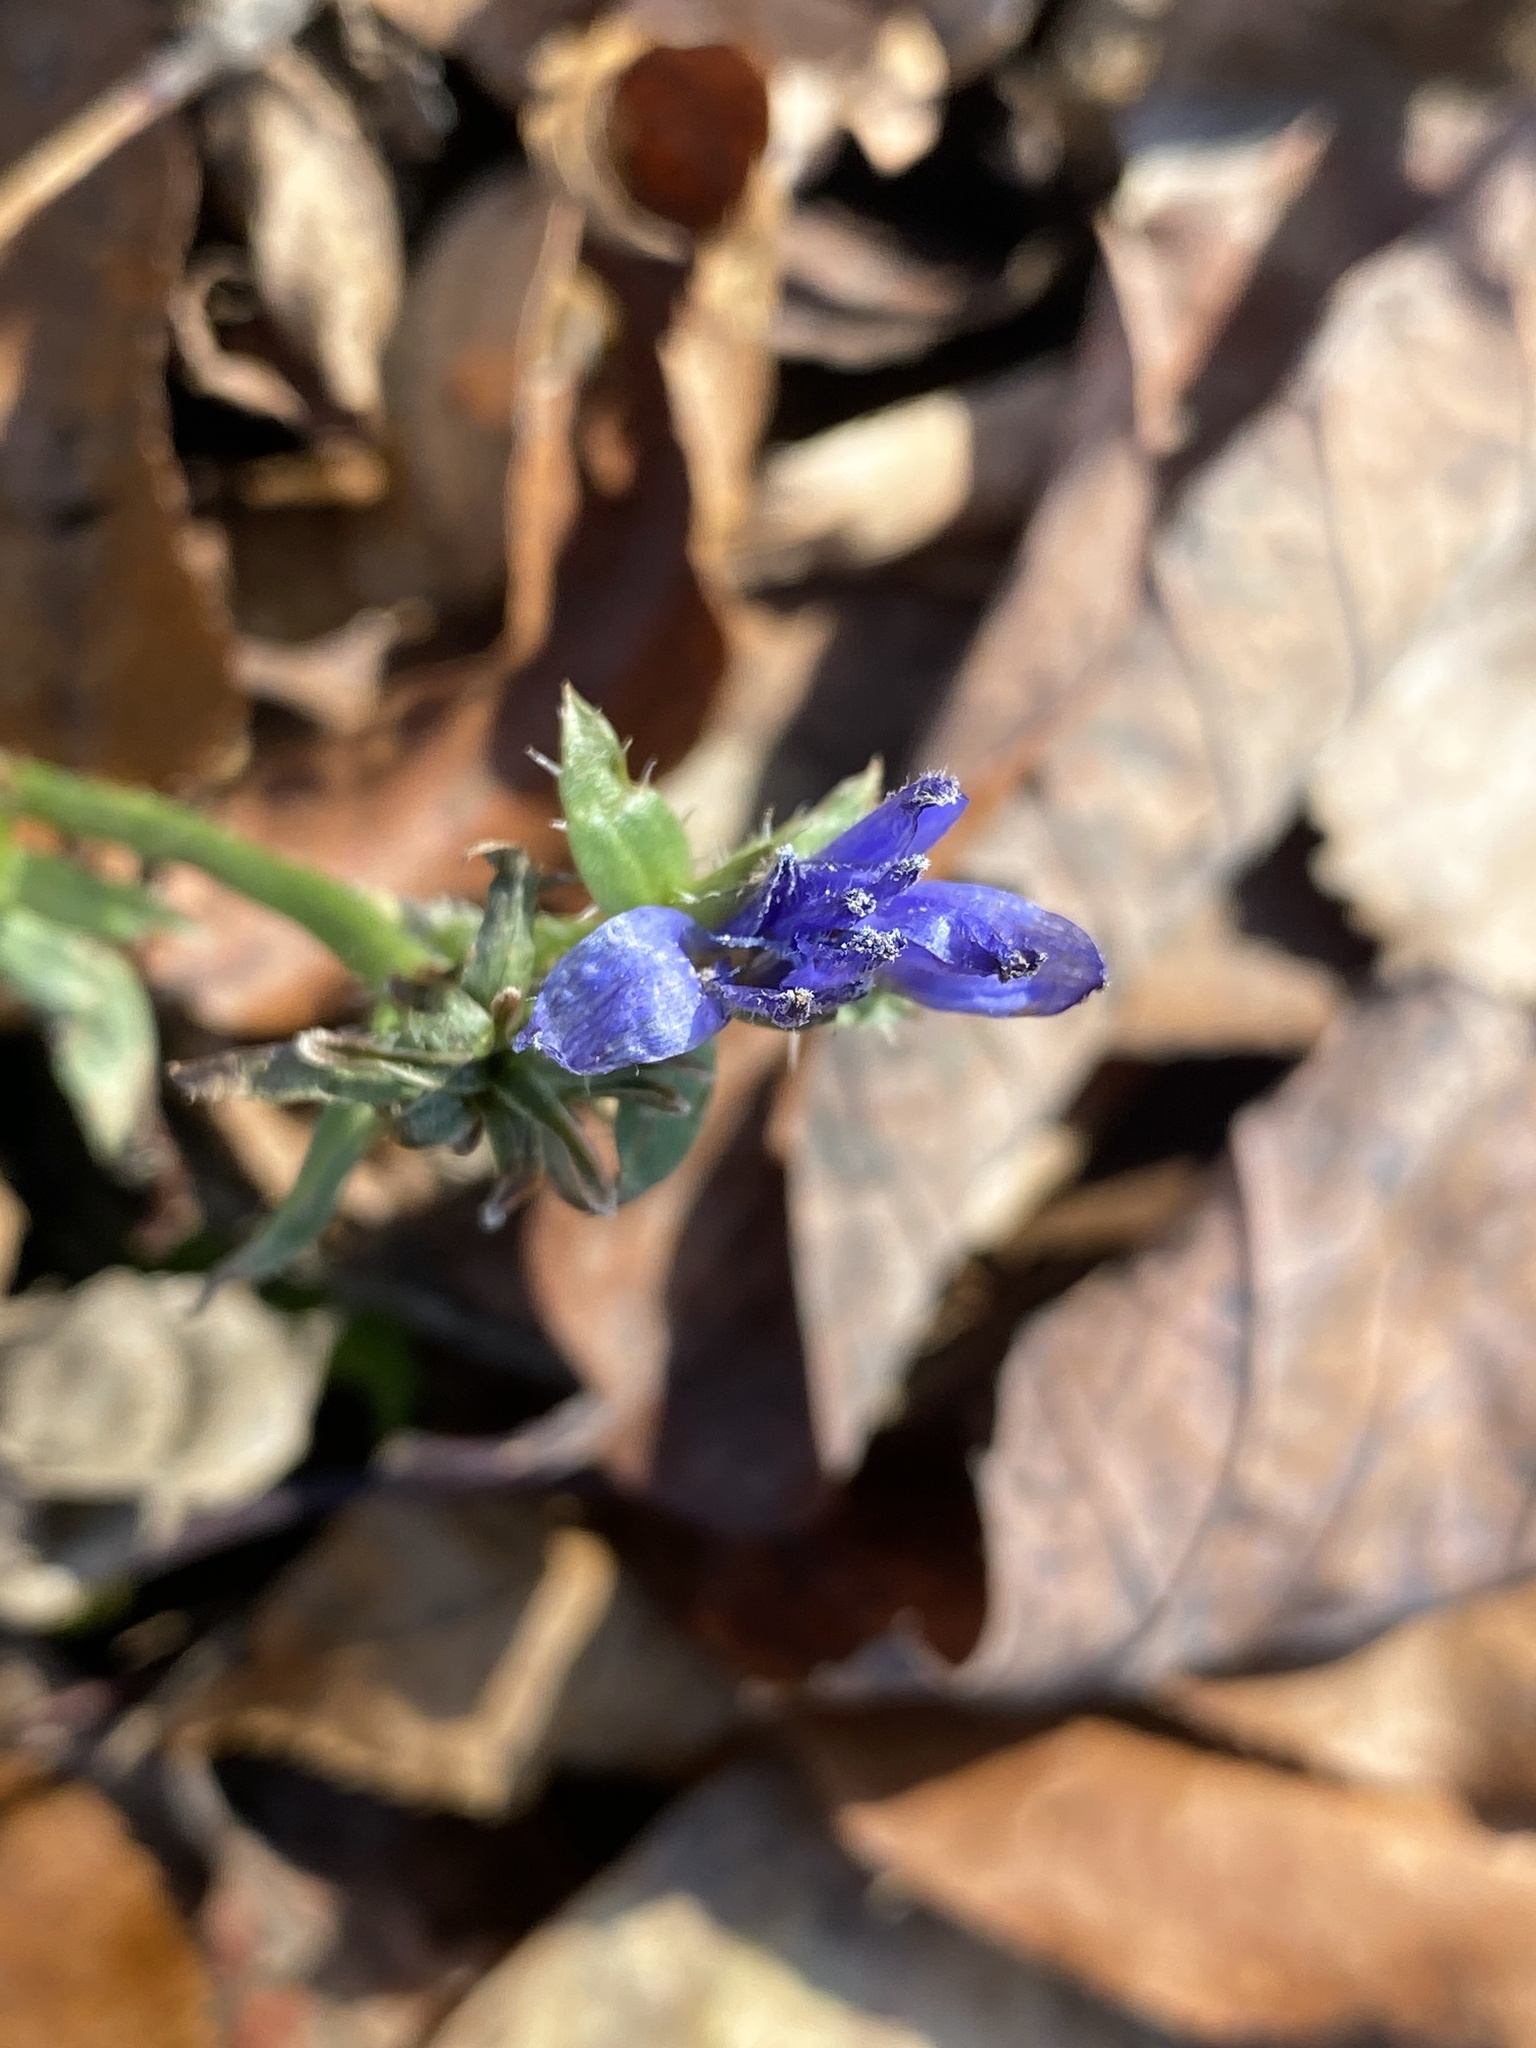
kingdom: Plantae
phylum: Tracheophyta
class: Magnoliopsida
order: Asterales
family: Asteraceae
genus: Cichorium
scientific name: Cichorium intybus
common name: Chicory
